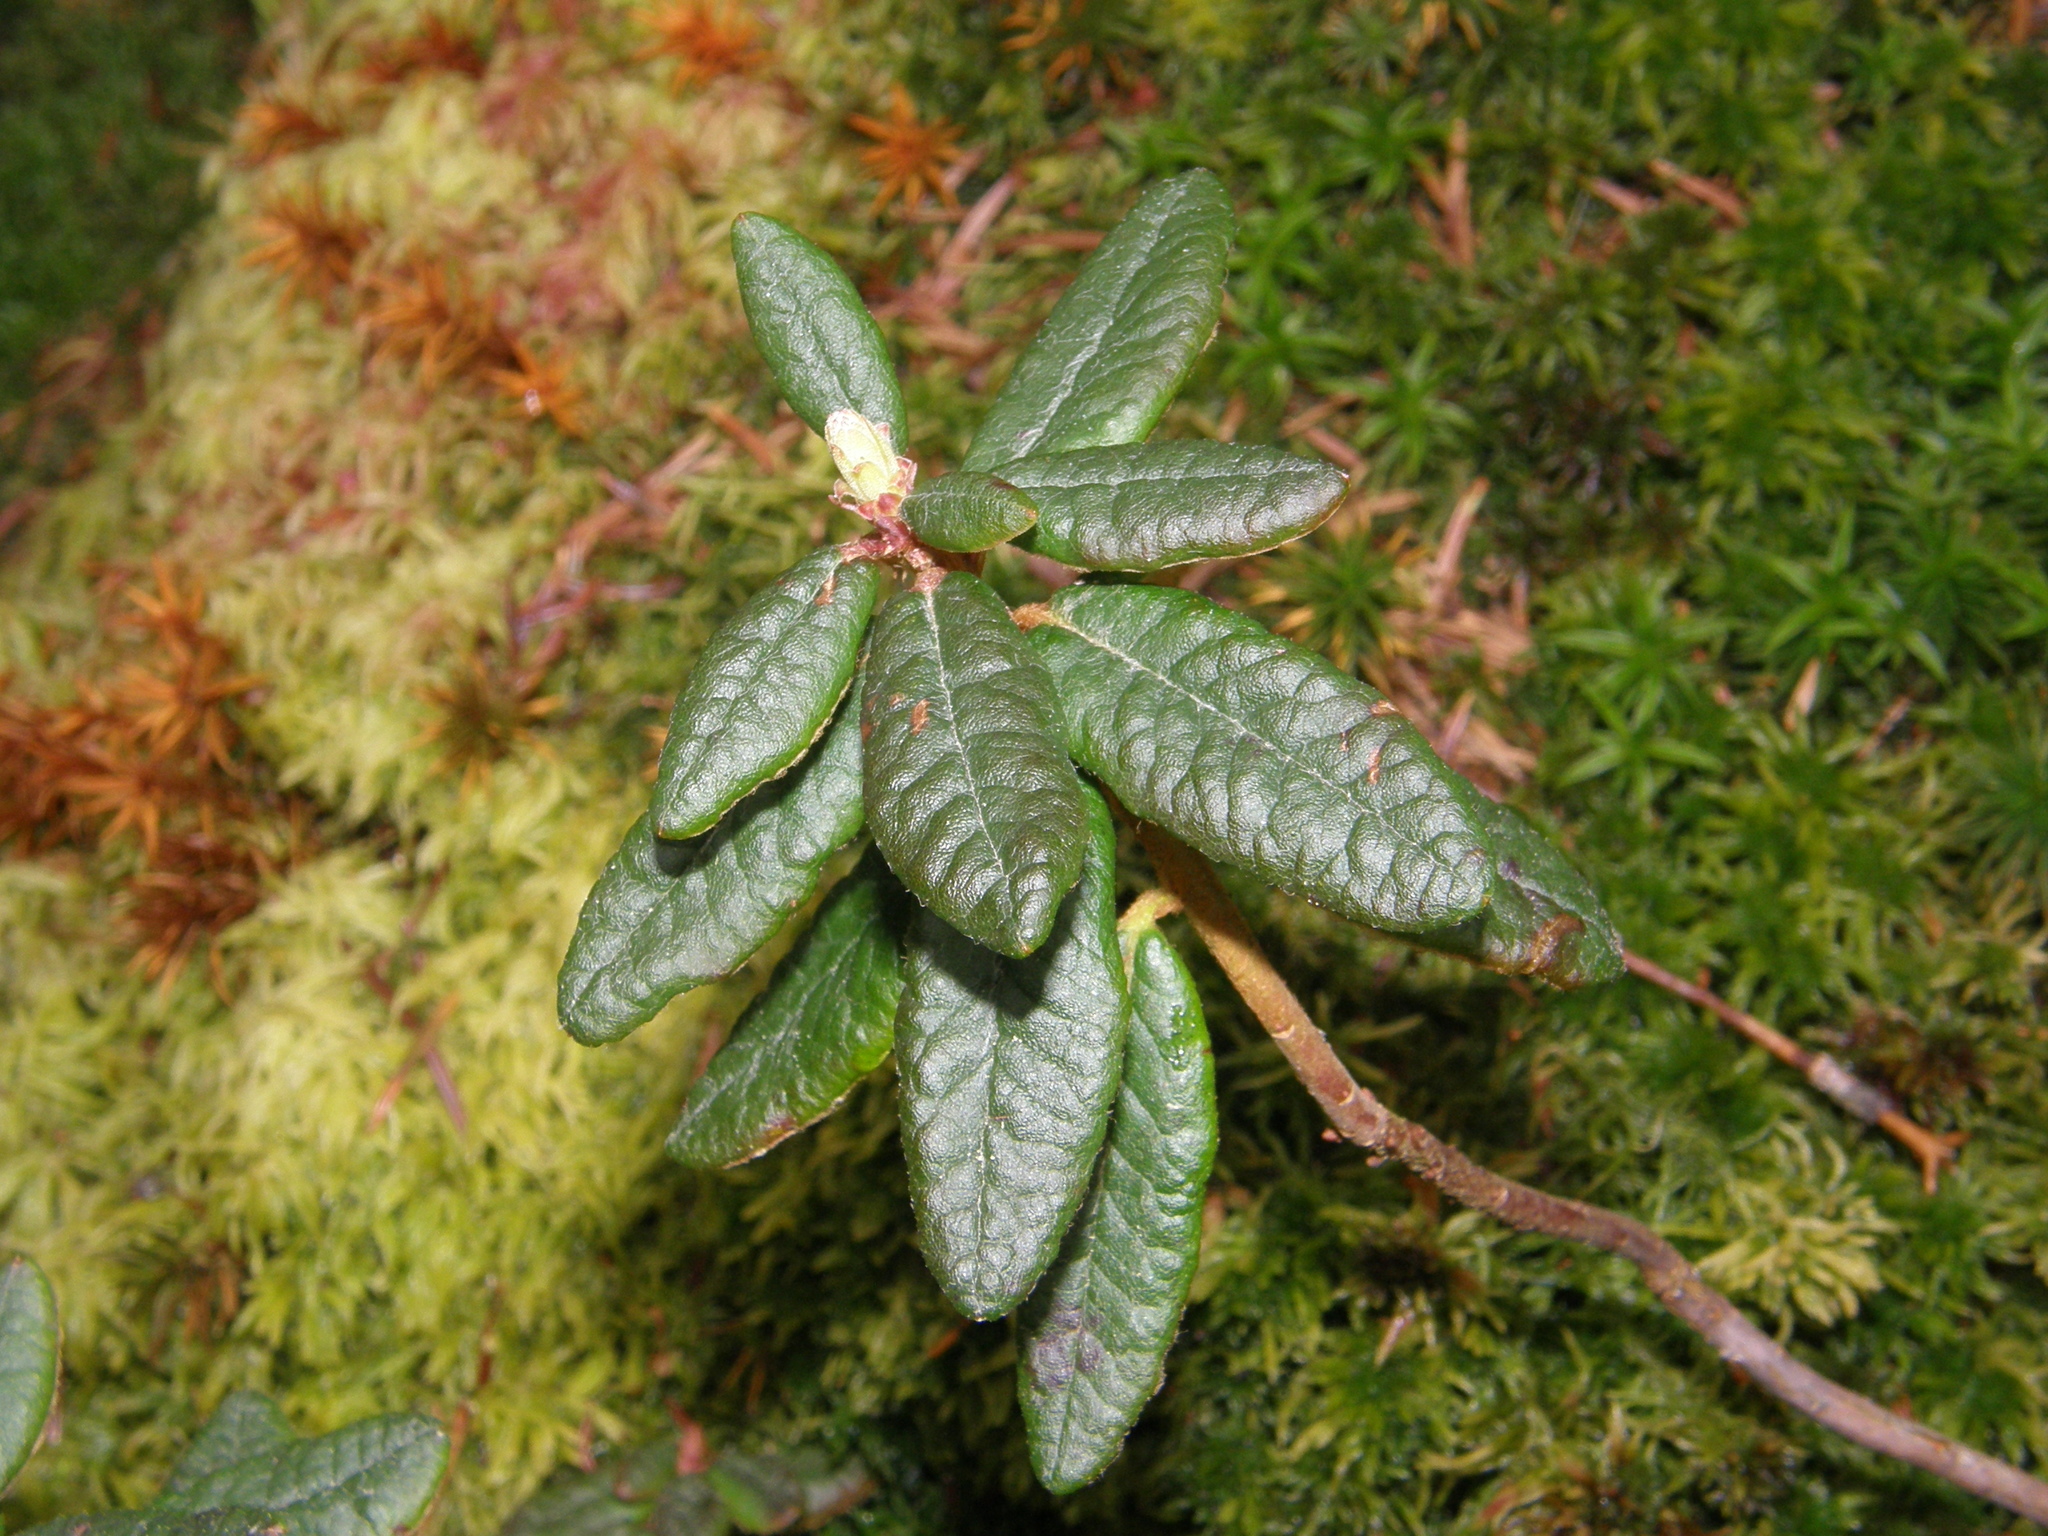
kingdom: Plantae
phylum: Tracheophyta
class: Magnoliopsida
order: Ericales
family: Ericaceae
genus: Rhododendron
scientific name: Rhododendron groenlandicum
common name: Bog labrador tea
